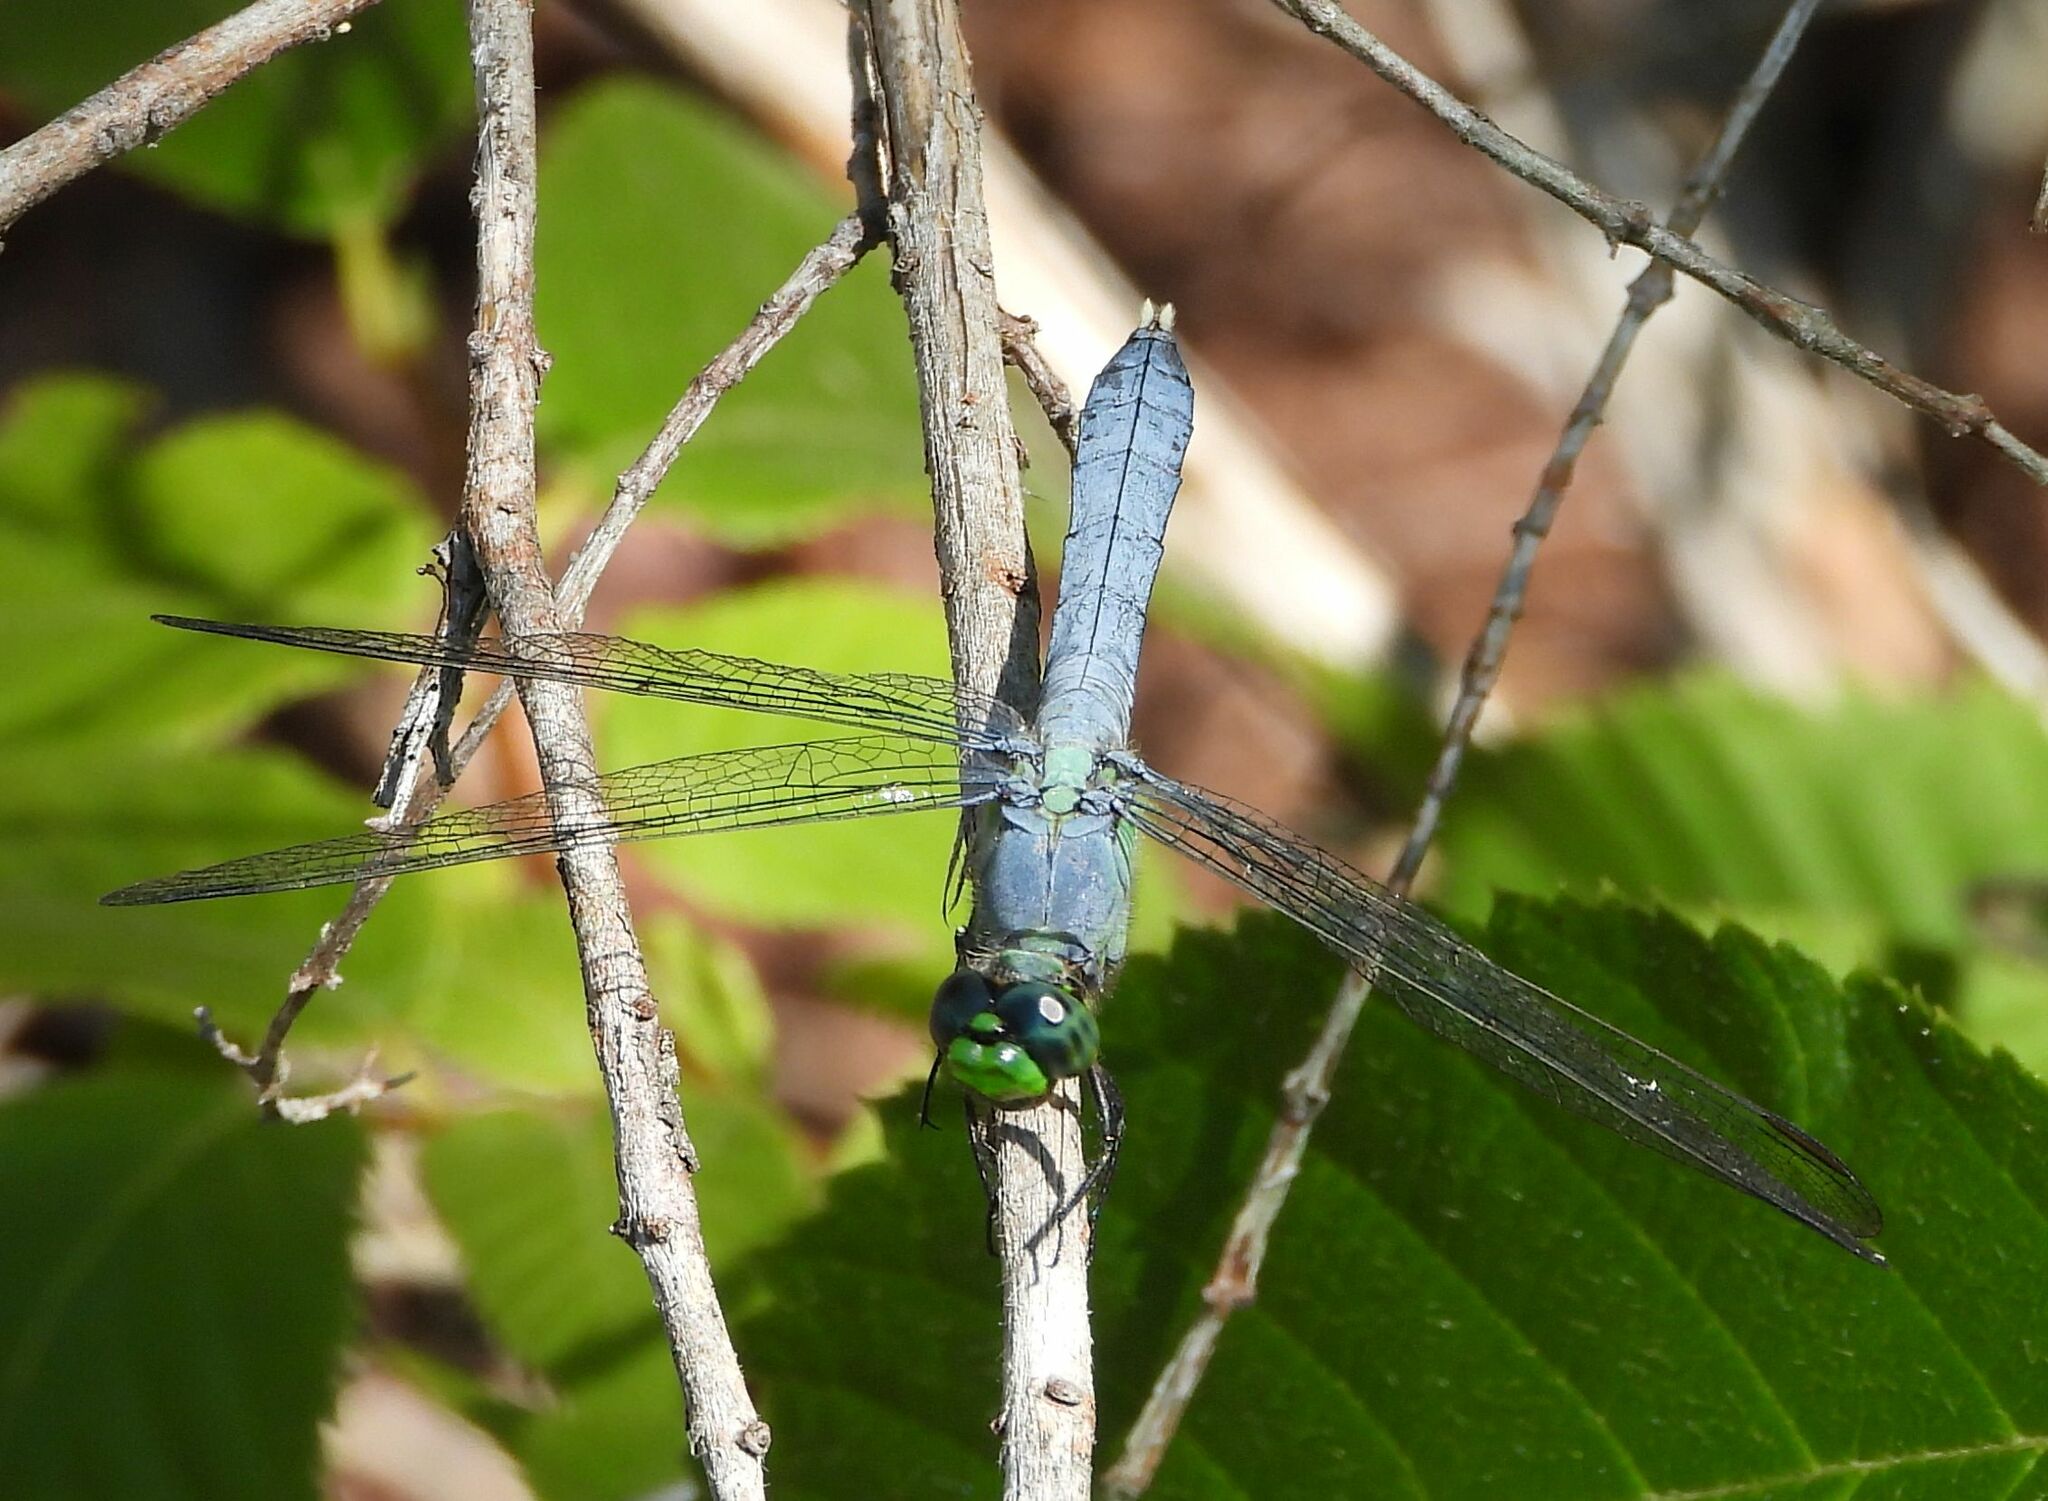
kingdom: Animalia
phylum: Arthropoda
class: Insecta
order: Odonata
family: Libellulidae
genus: Erythemis
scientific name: Erythemis simplicicollis
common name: Eastern pondhawk
